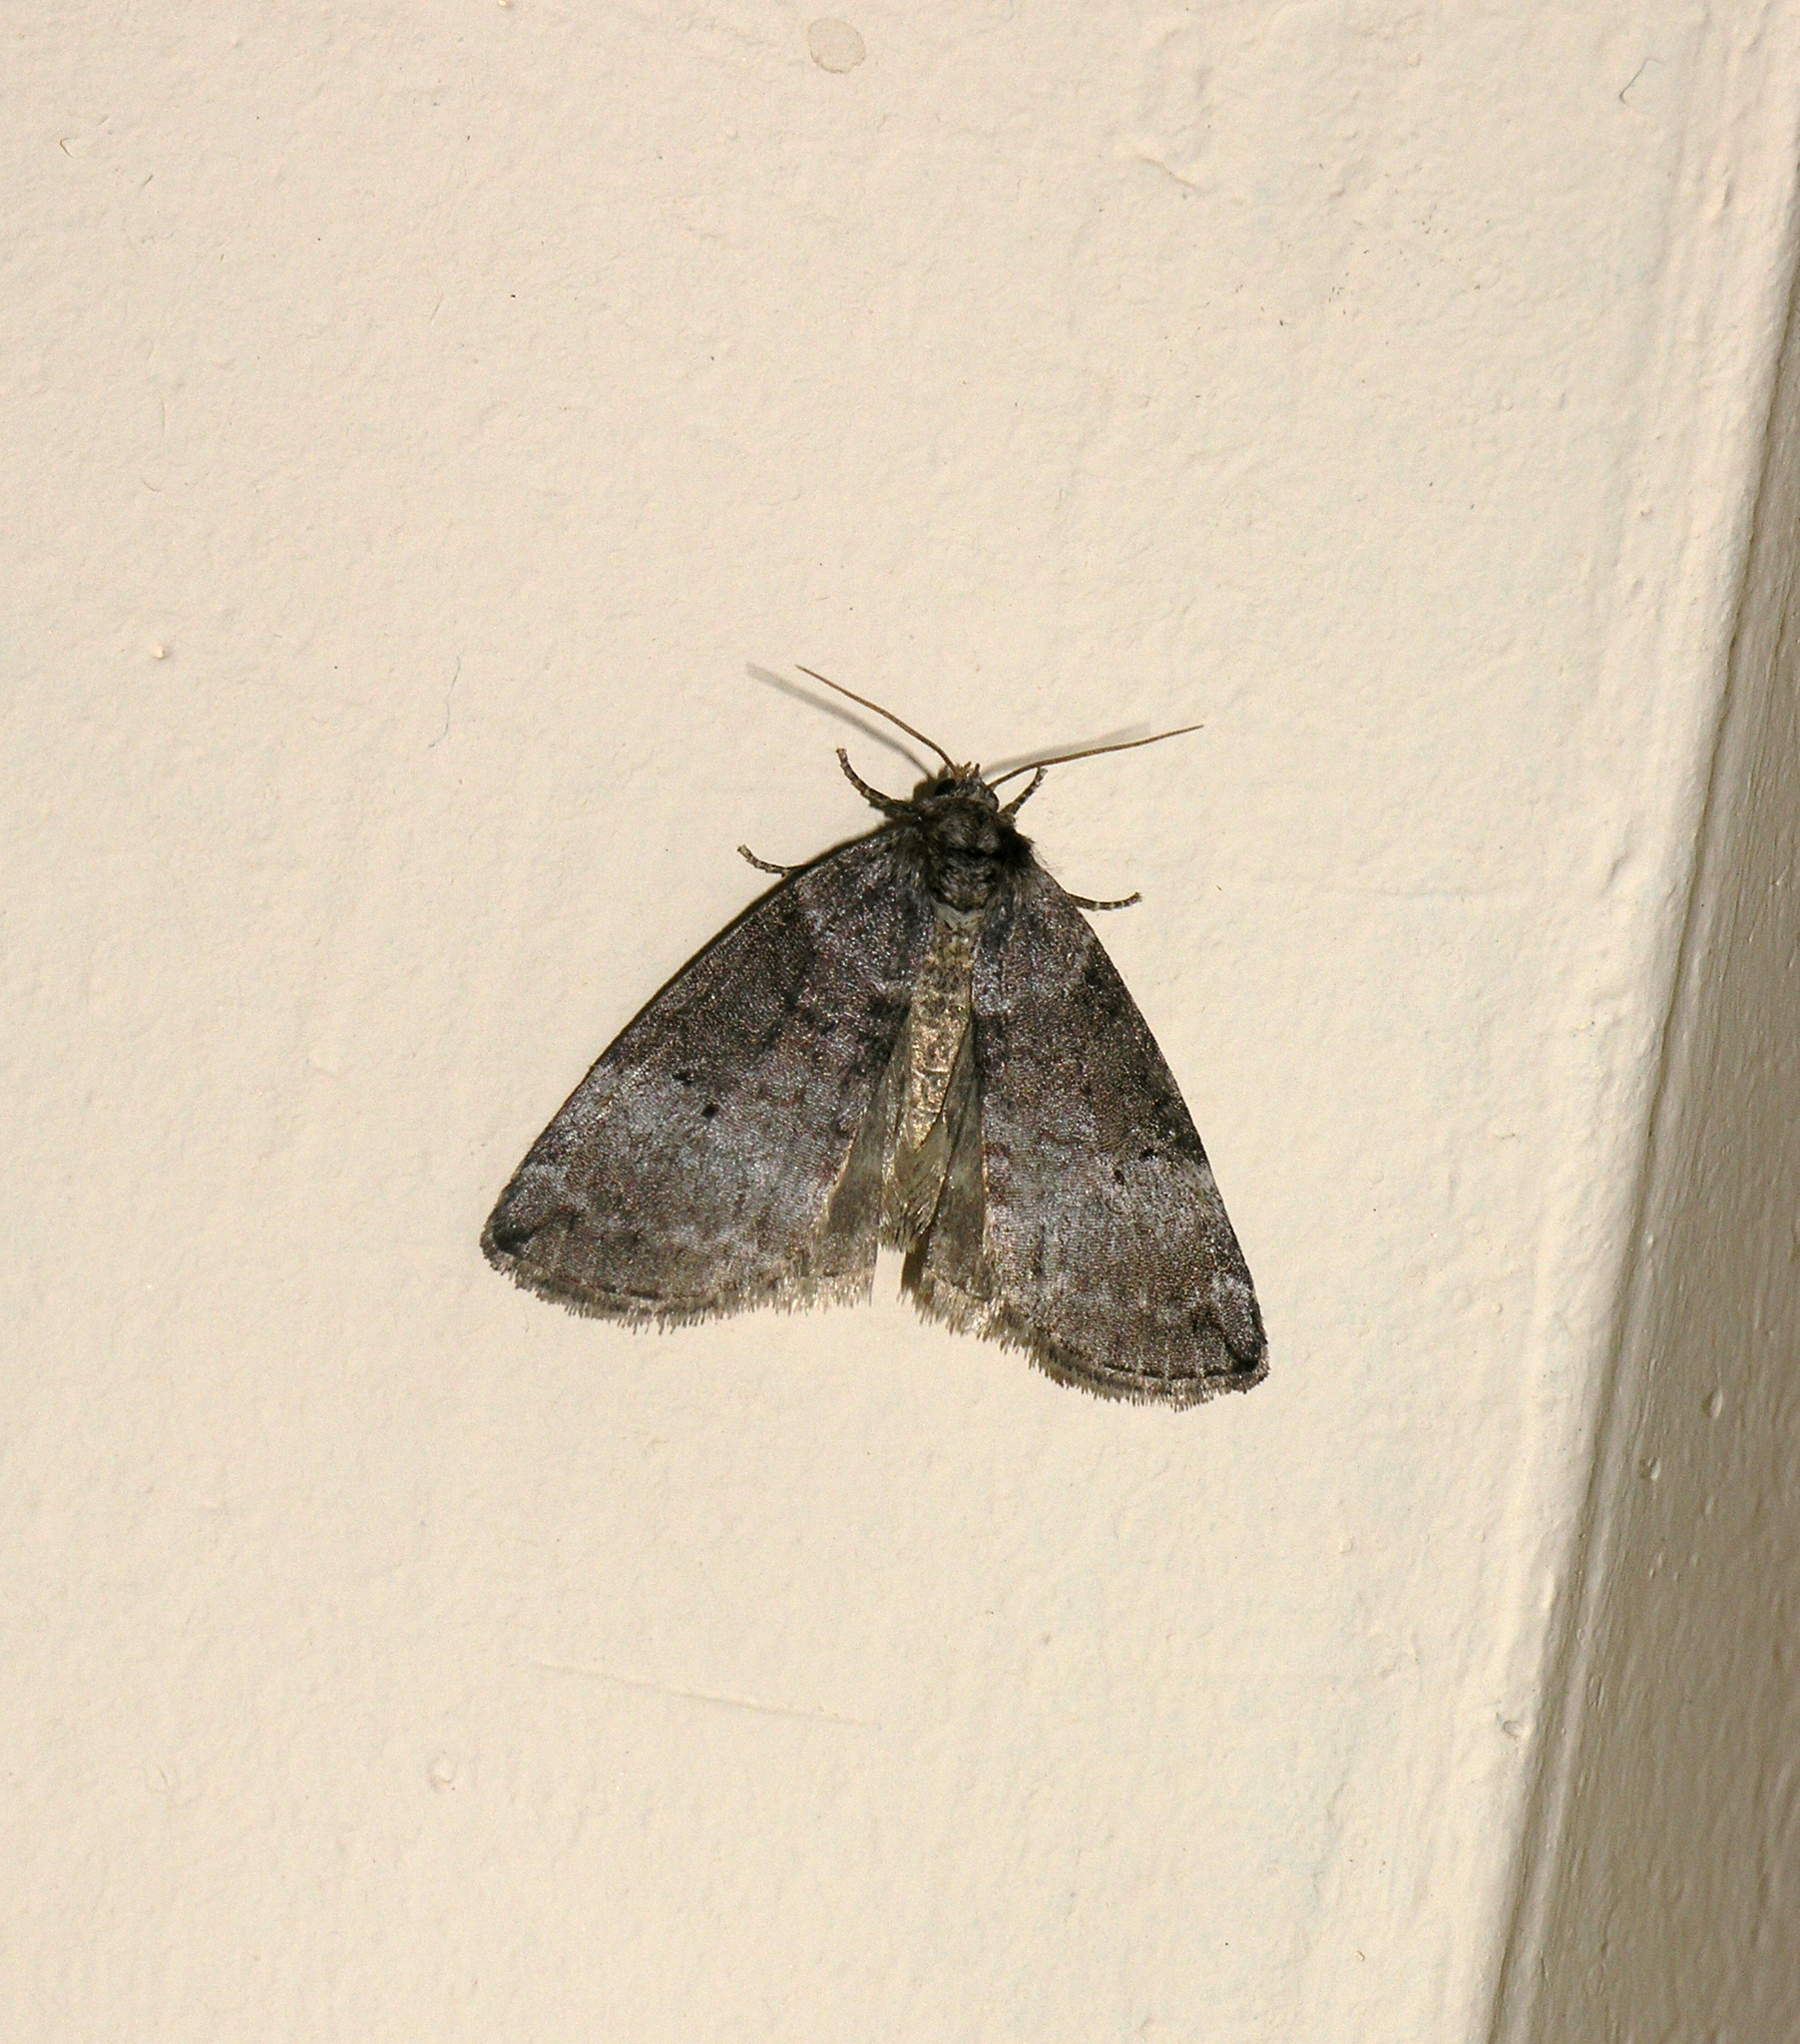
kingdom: Animalia
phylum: Arthropoda
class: Insecta
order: Lepidoptera
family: Drepanidae
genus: Ochropacha
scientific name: Ochropacha duplaris
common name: Common lutestring
